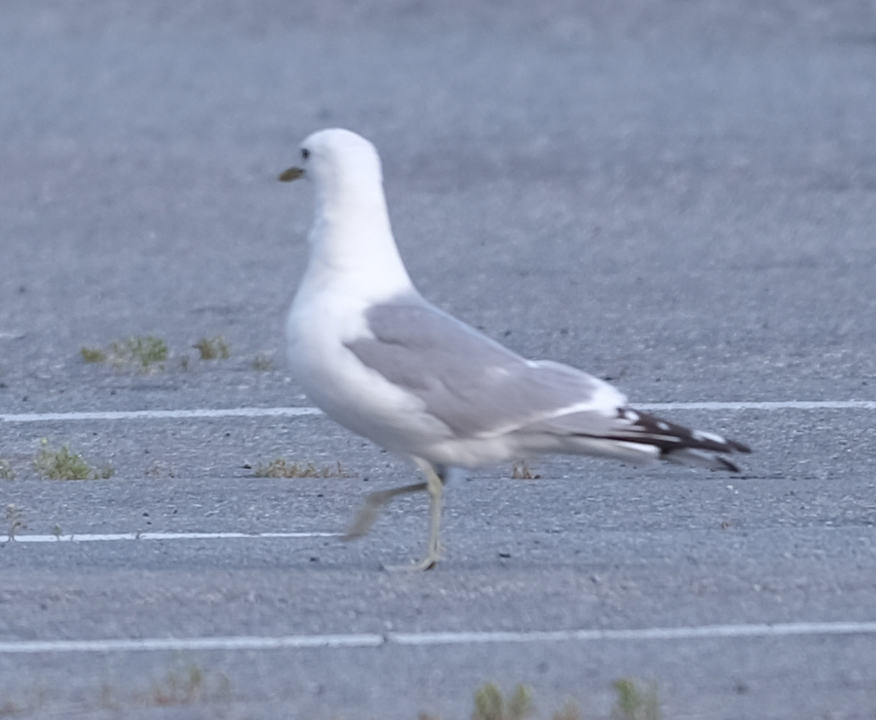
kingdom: Animalia
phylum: Chordata
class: Aves
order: Charadriiformes
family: Laridae
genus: Larus
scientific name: Larus brachyrhynchus
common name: Short-billed gull
